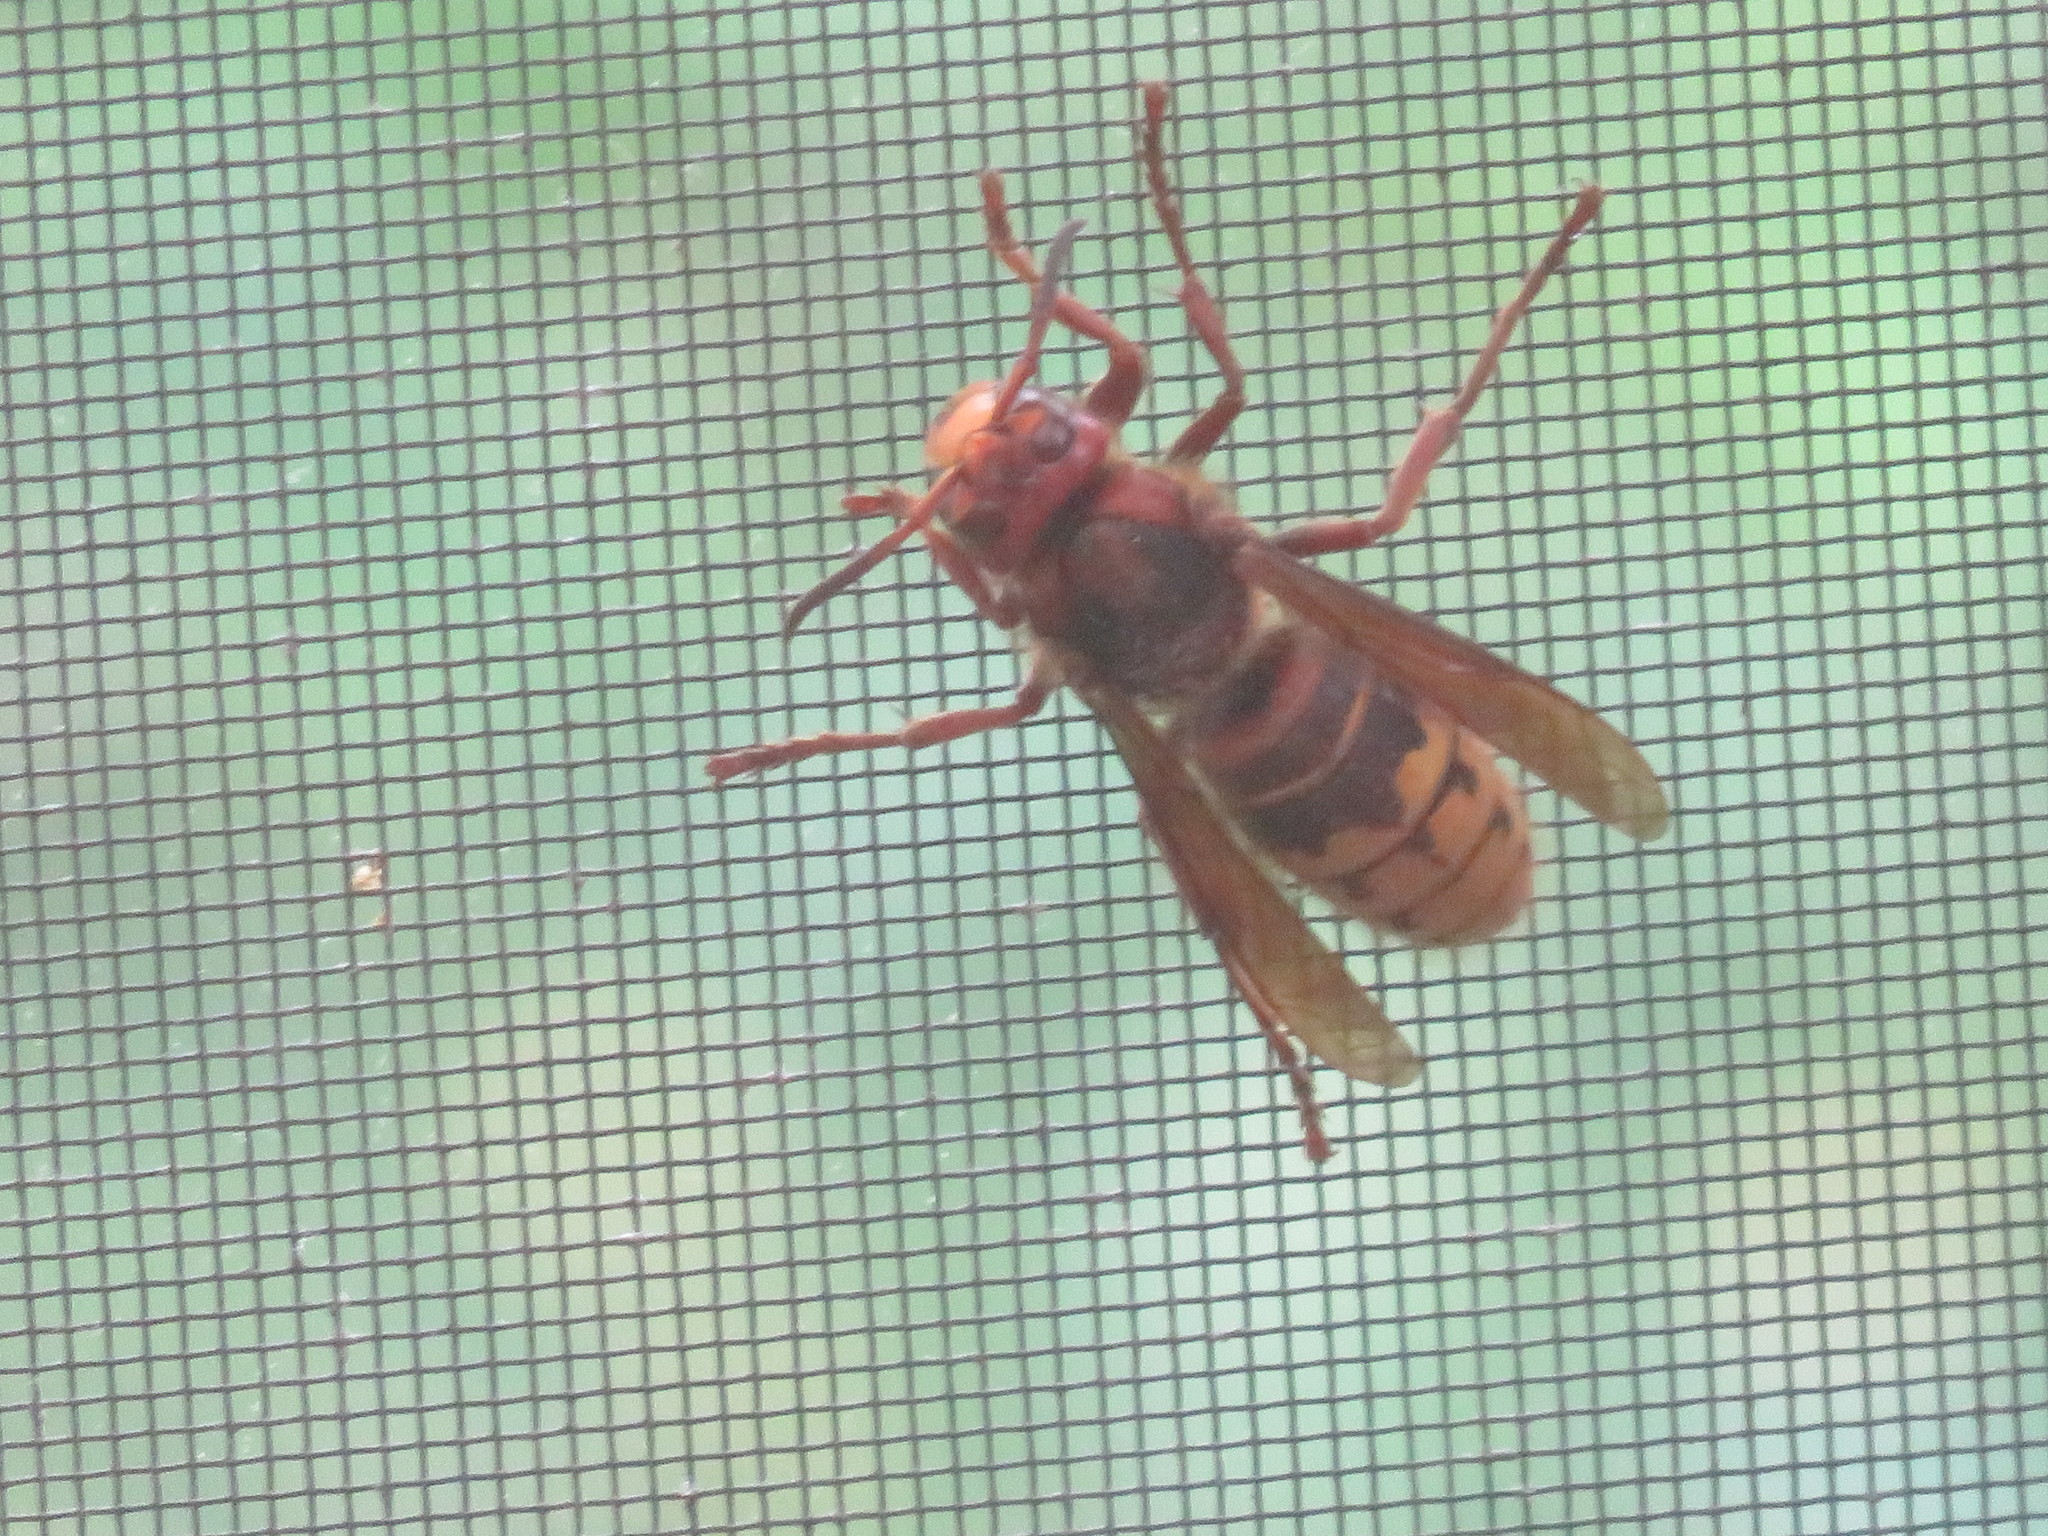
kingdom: Animalia
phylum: Arthropoda
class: Insecta
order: Hymenoptera
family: Vespidae
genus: Vespa
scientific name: Vespa crabro
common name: Hornet
